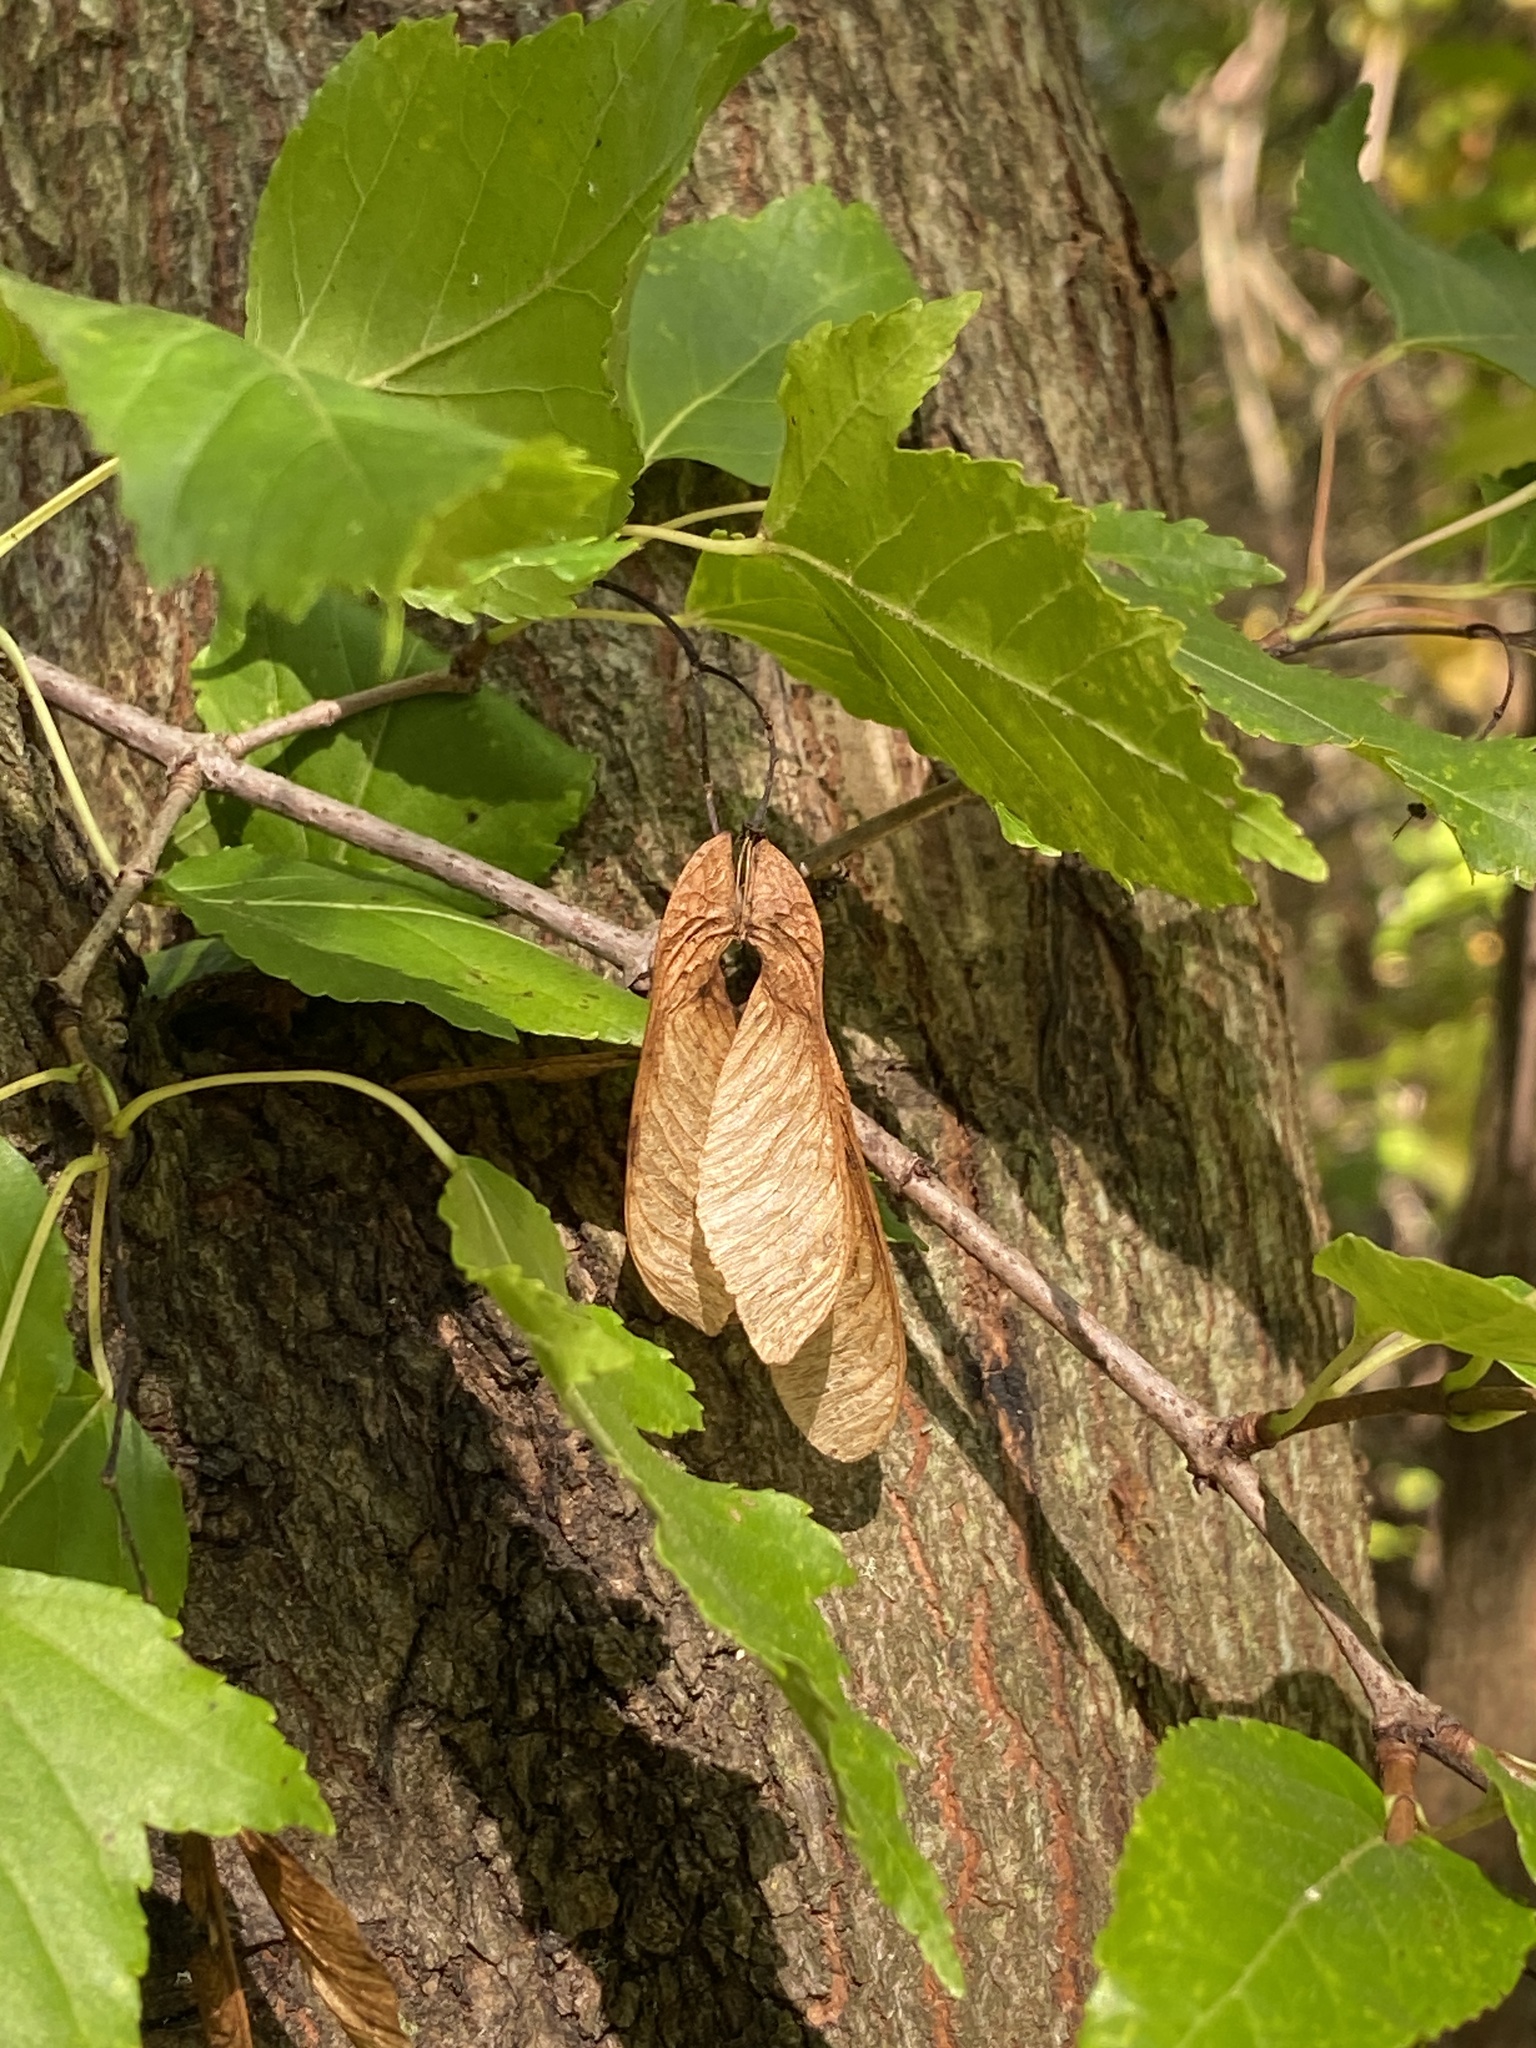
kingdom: Plantae
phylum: Tracheophyta
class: Magnoliopsida
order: Sapindales
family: Sapindaceae
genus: Acer
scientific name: Acer tataricum
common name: Tartar maple
